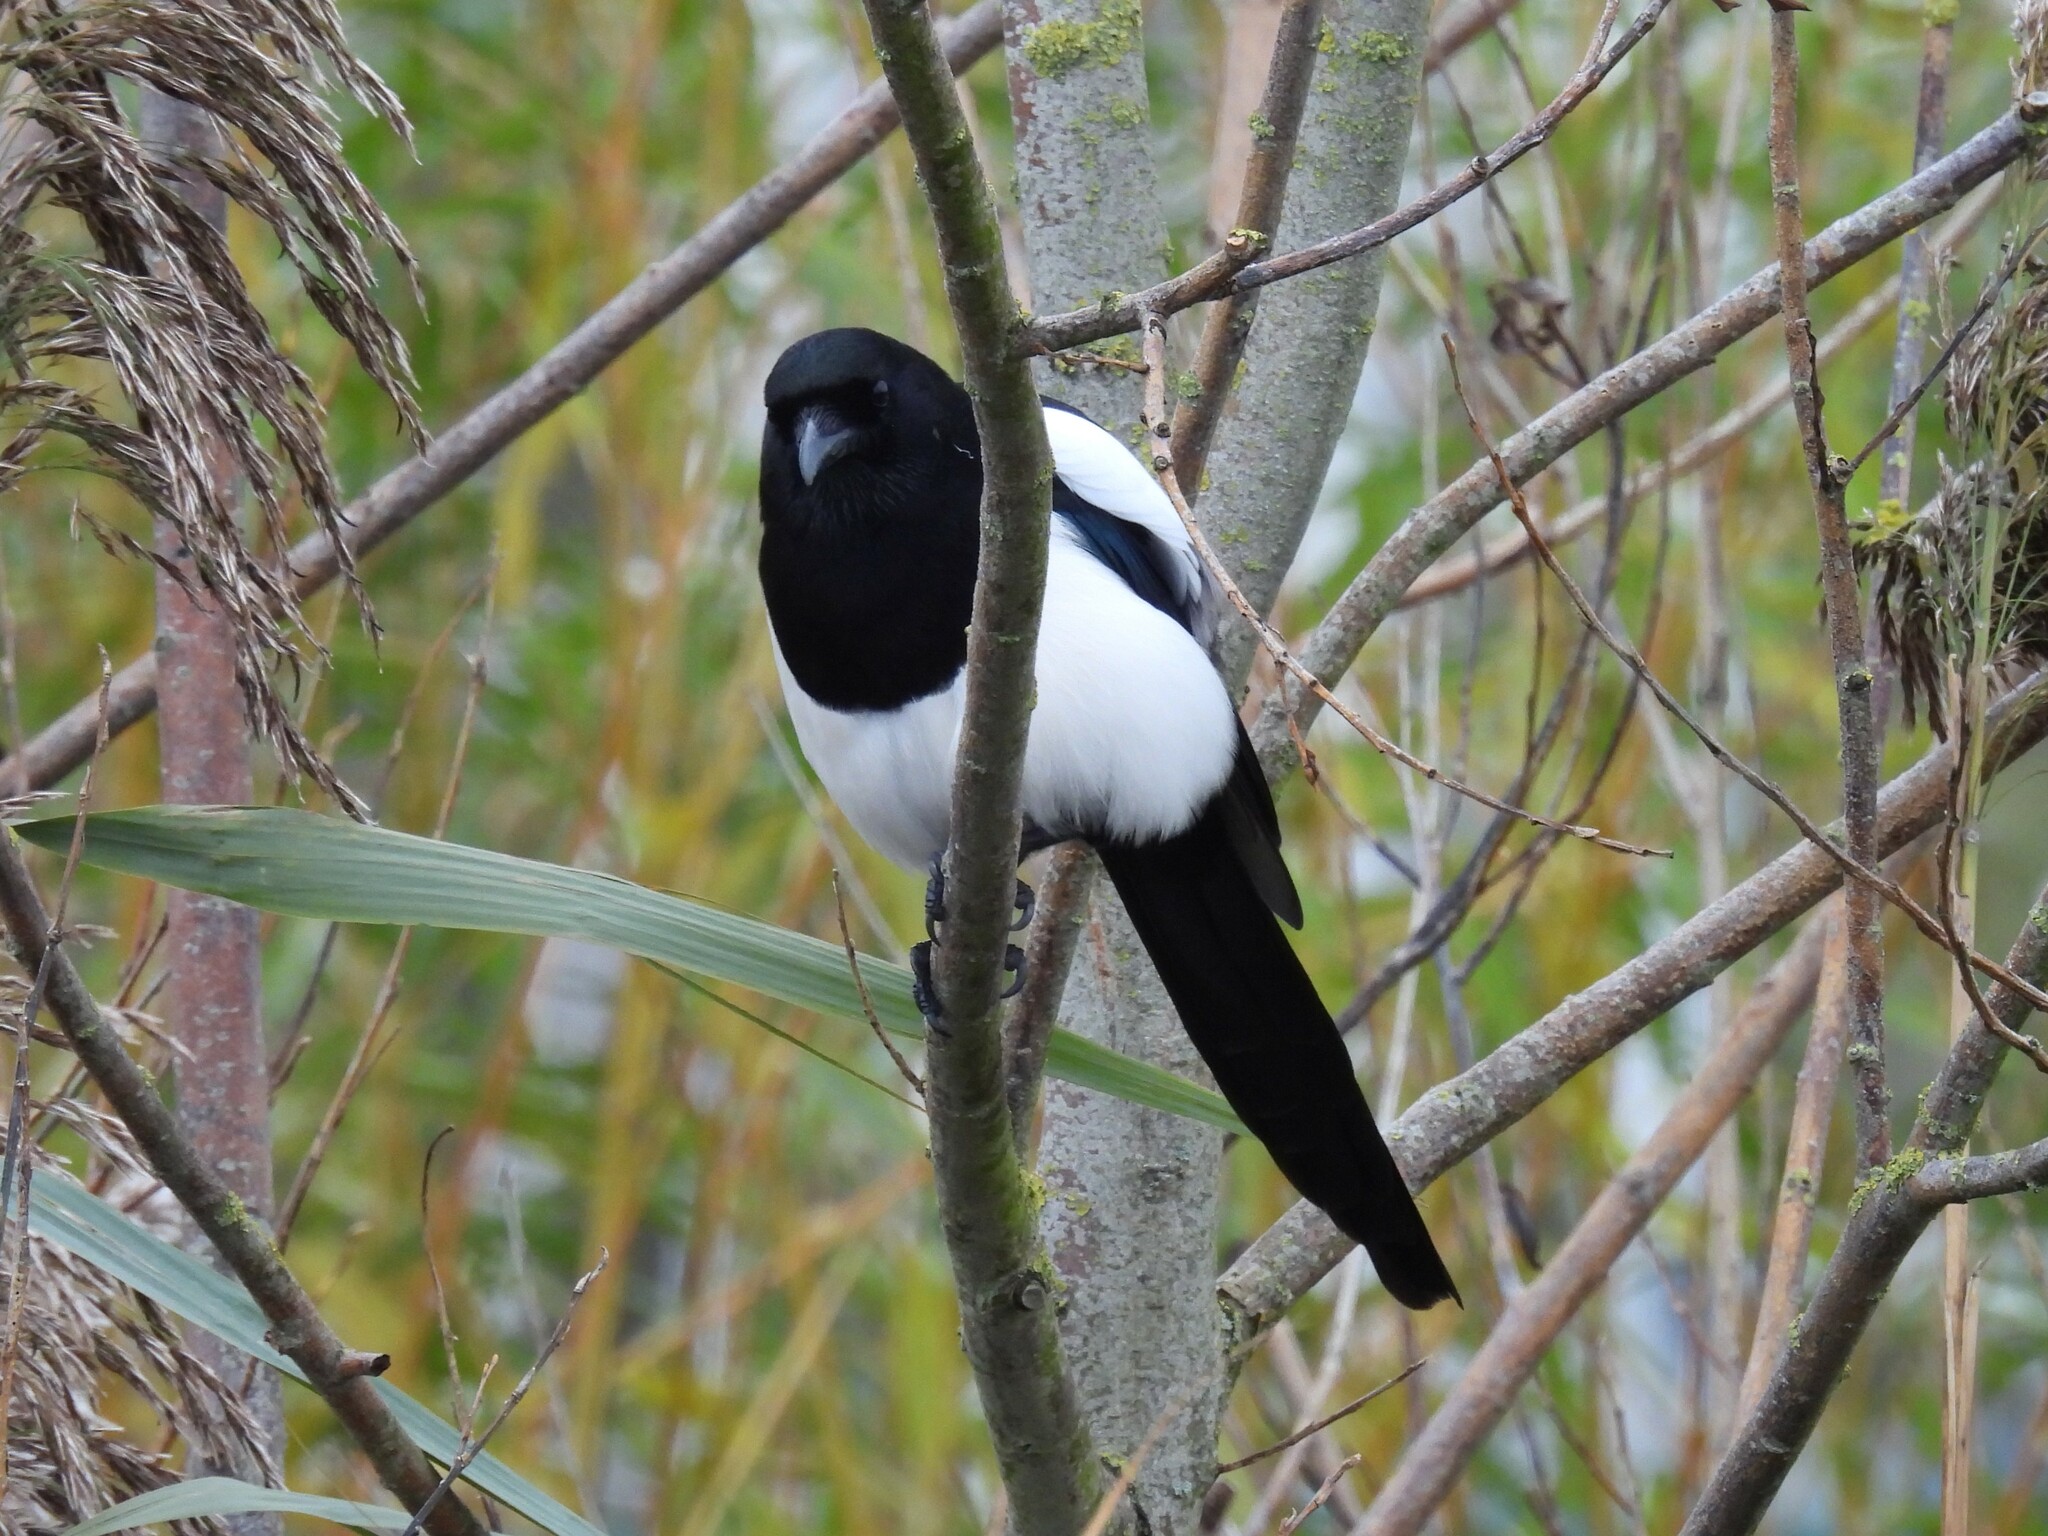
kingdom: Animalia
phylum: Chordata
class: Aves
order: Passeriformes
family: Corvidae
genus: Pica
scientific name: Pica pica
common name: Eurasian magpie
